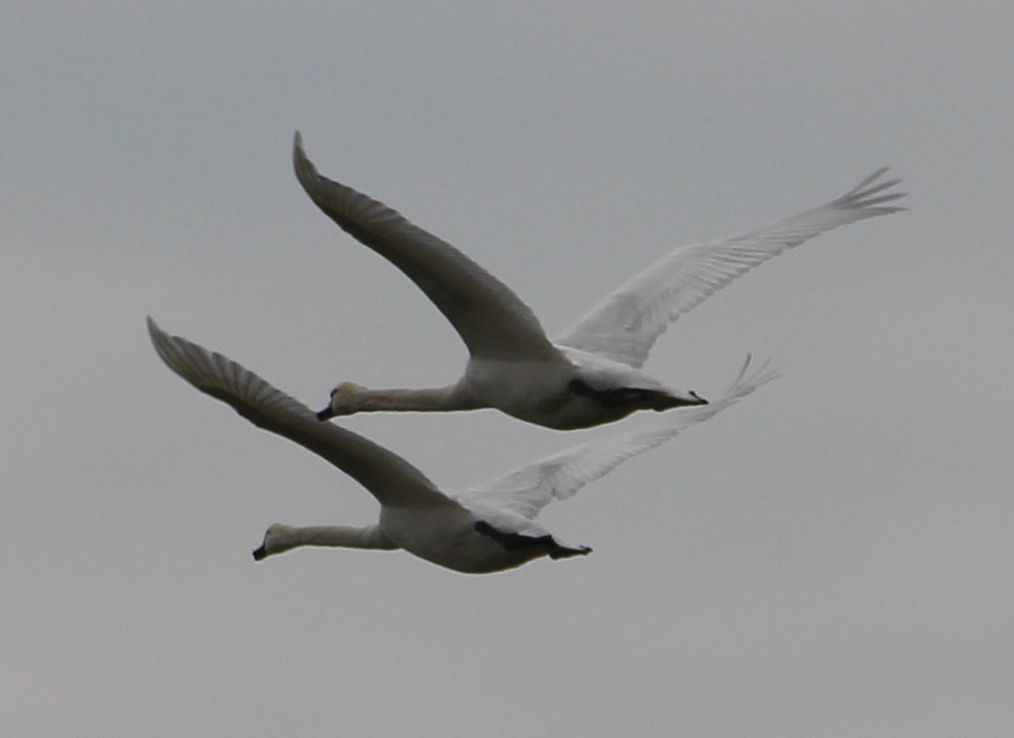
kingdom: Animalia
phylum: Chordata
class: Aves
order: Anseriformes
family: Anatidae
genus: Cygnus
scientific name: Cygnus olor
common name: Mute swan
